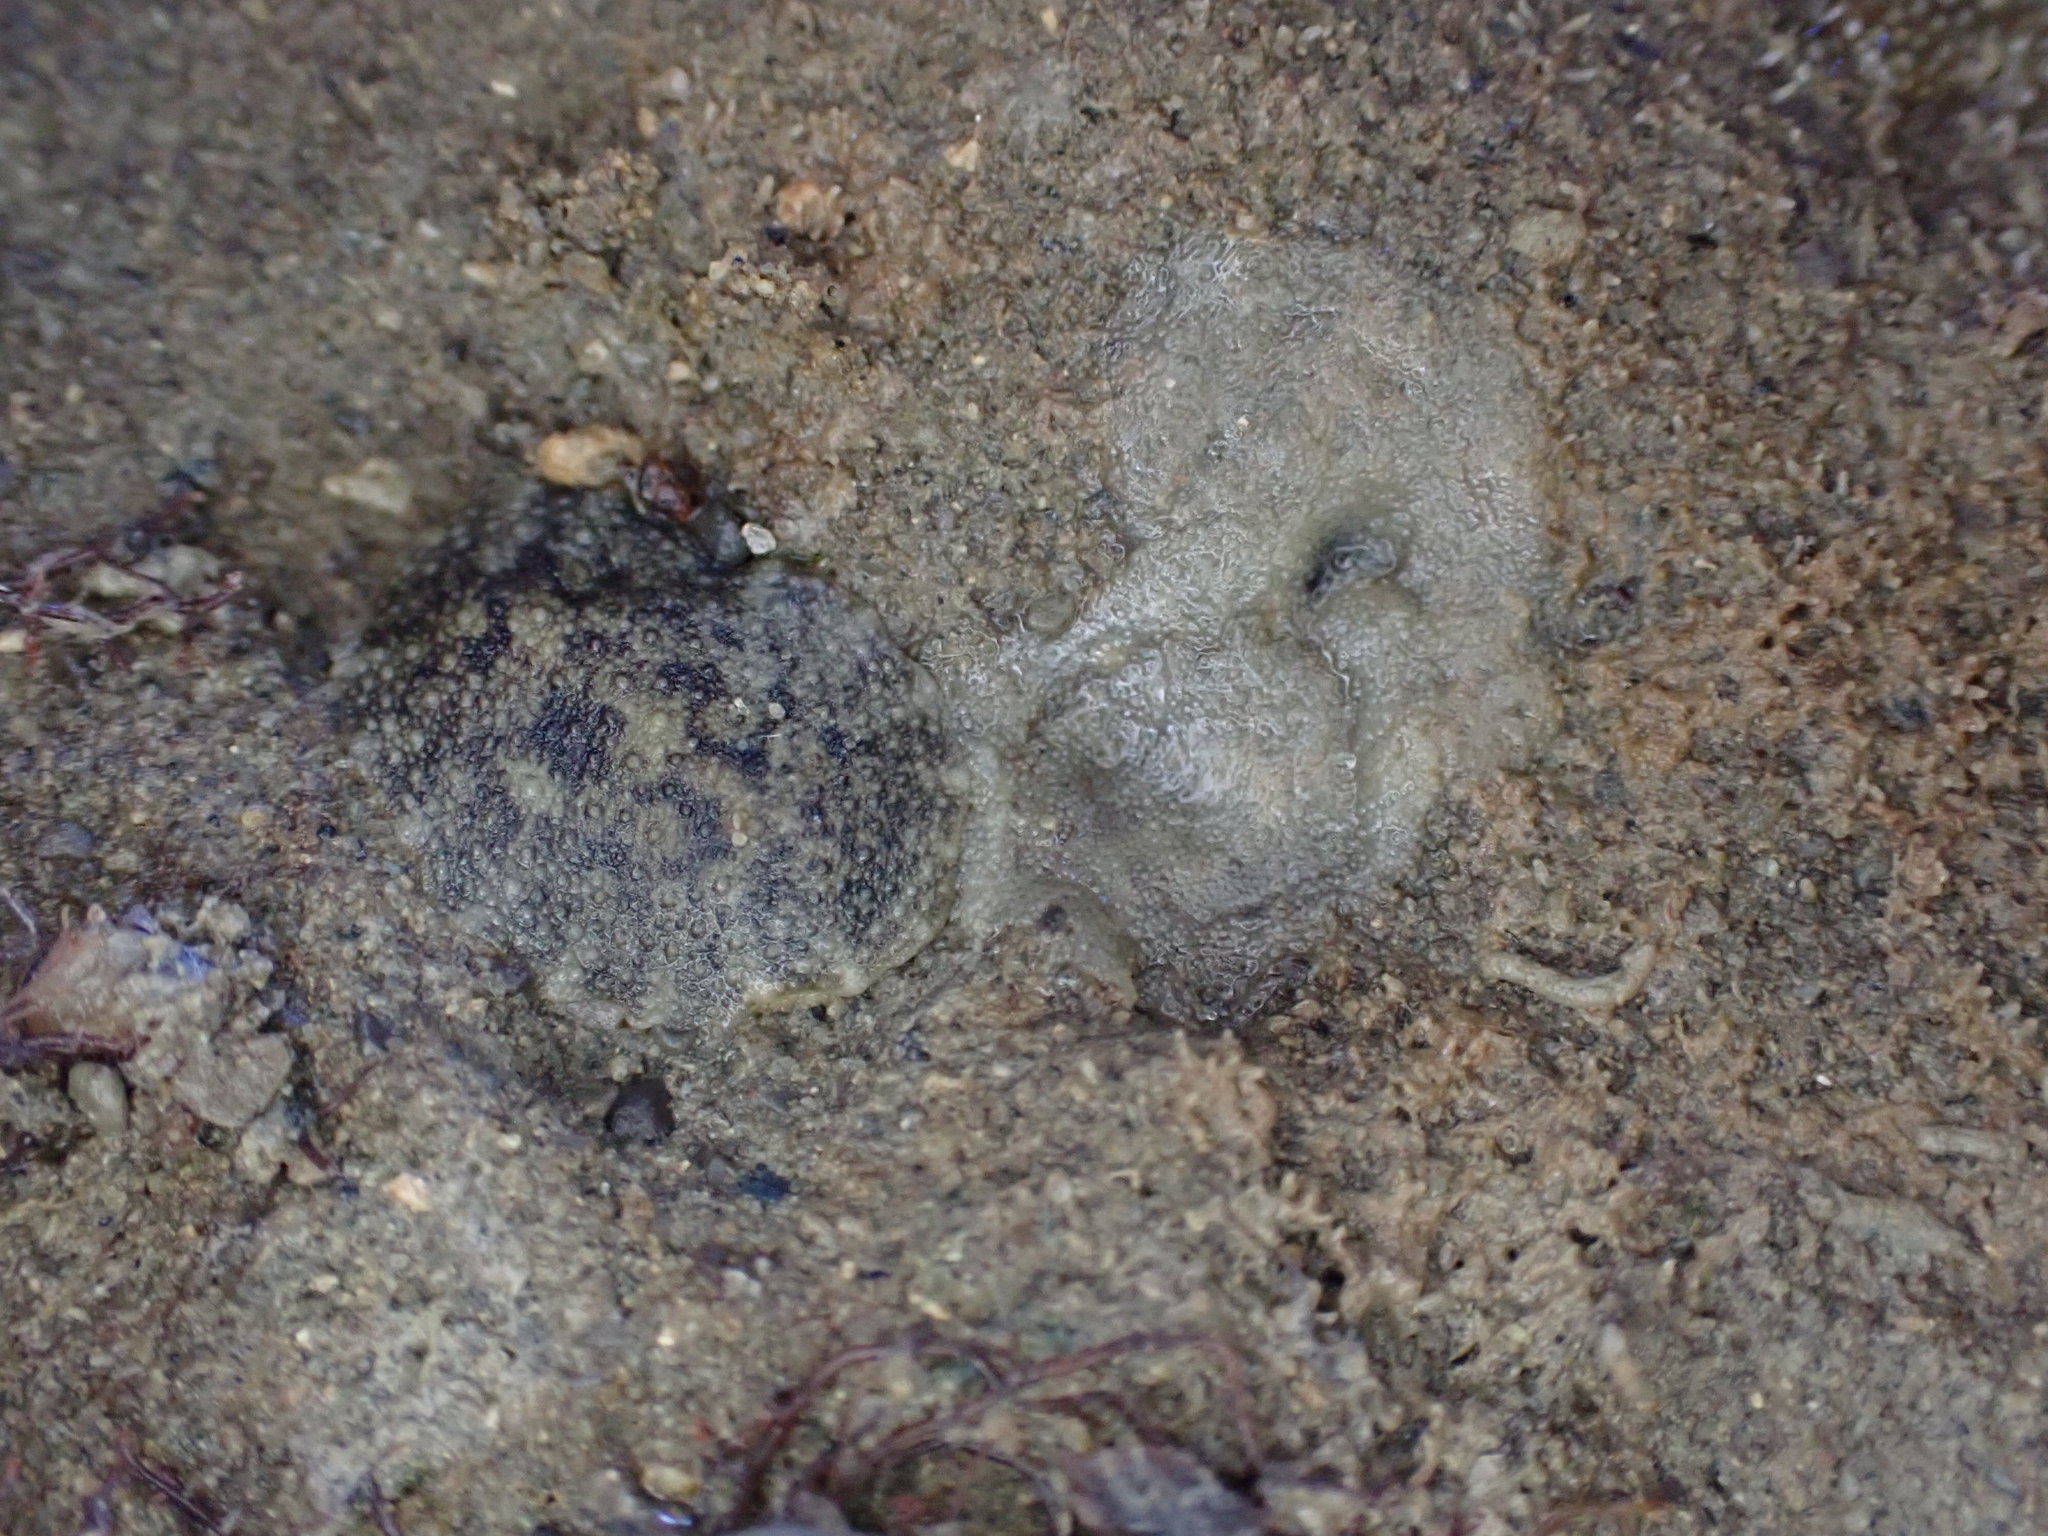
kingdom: Animalia
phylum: Mollusca
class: Gastropoda
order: Systellommatophora
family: Onchidiidae
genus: Onchidella
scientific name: Onchidella nigricans
